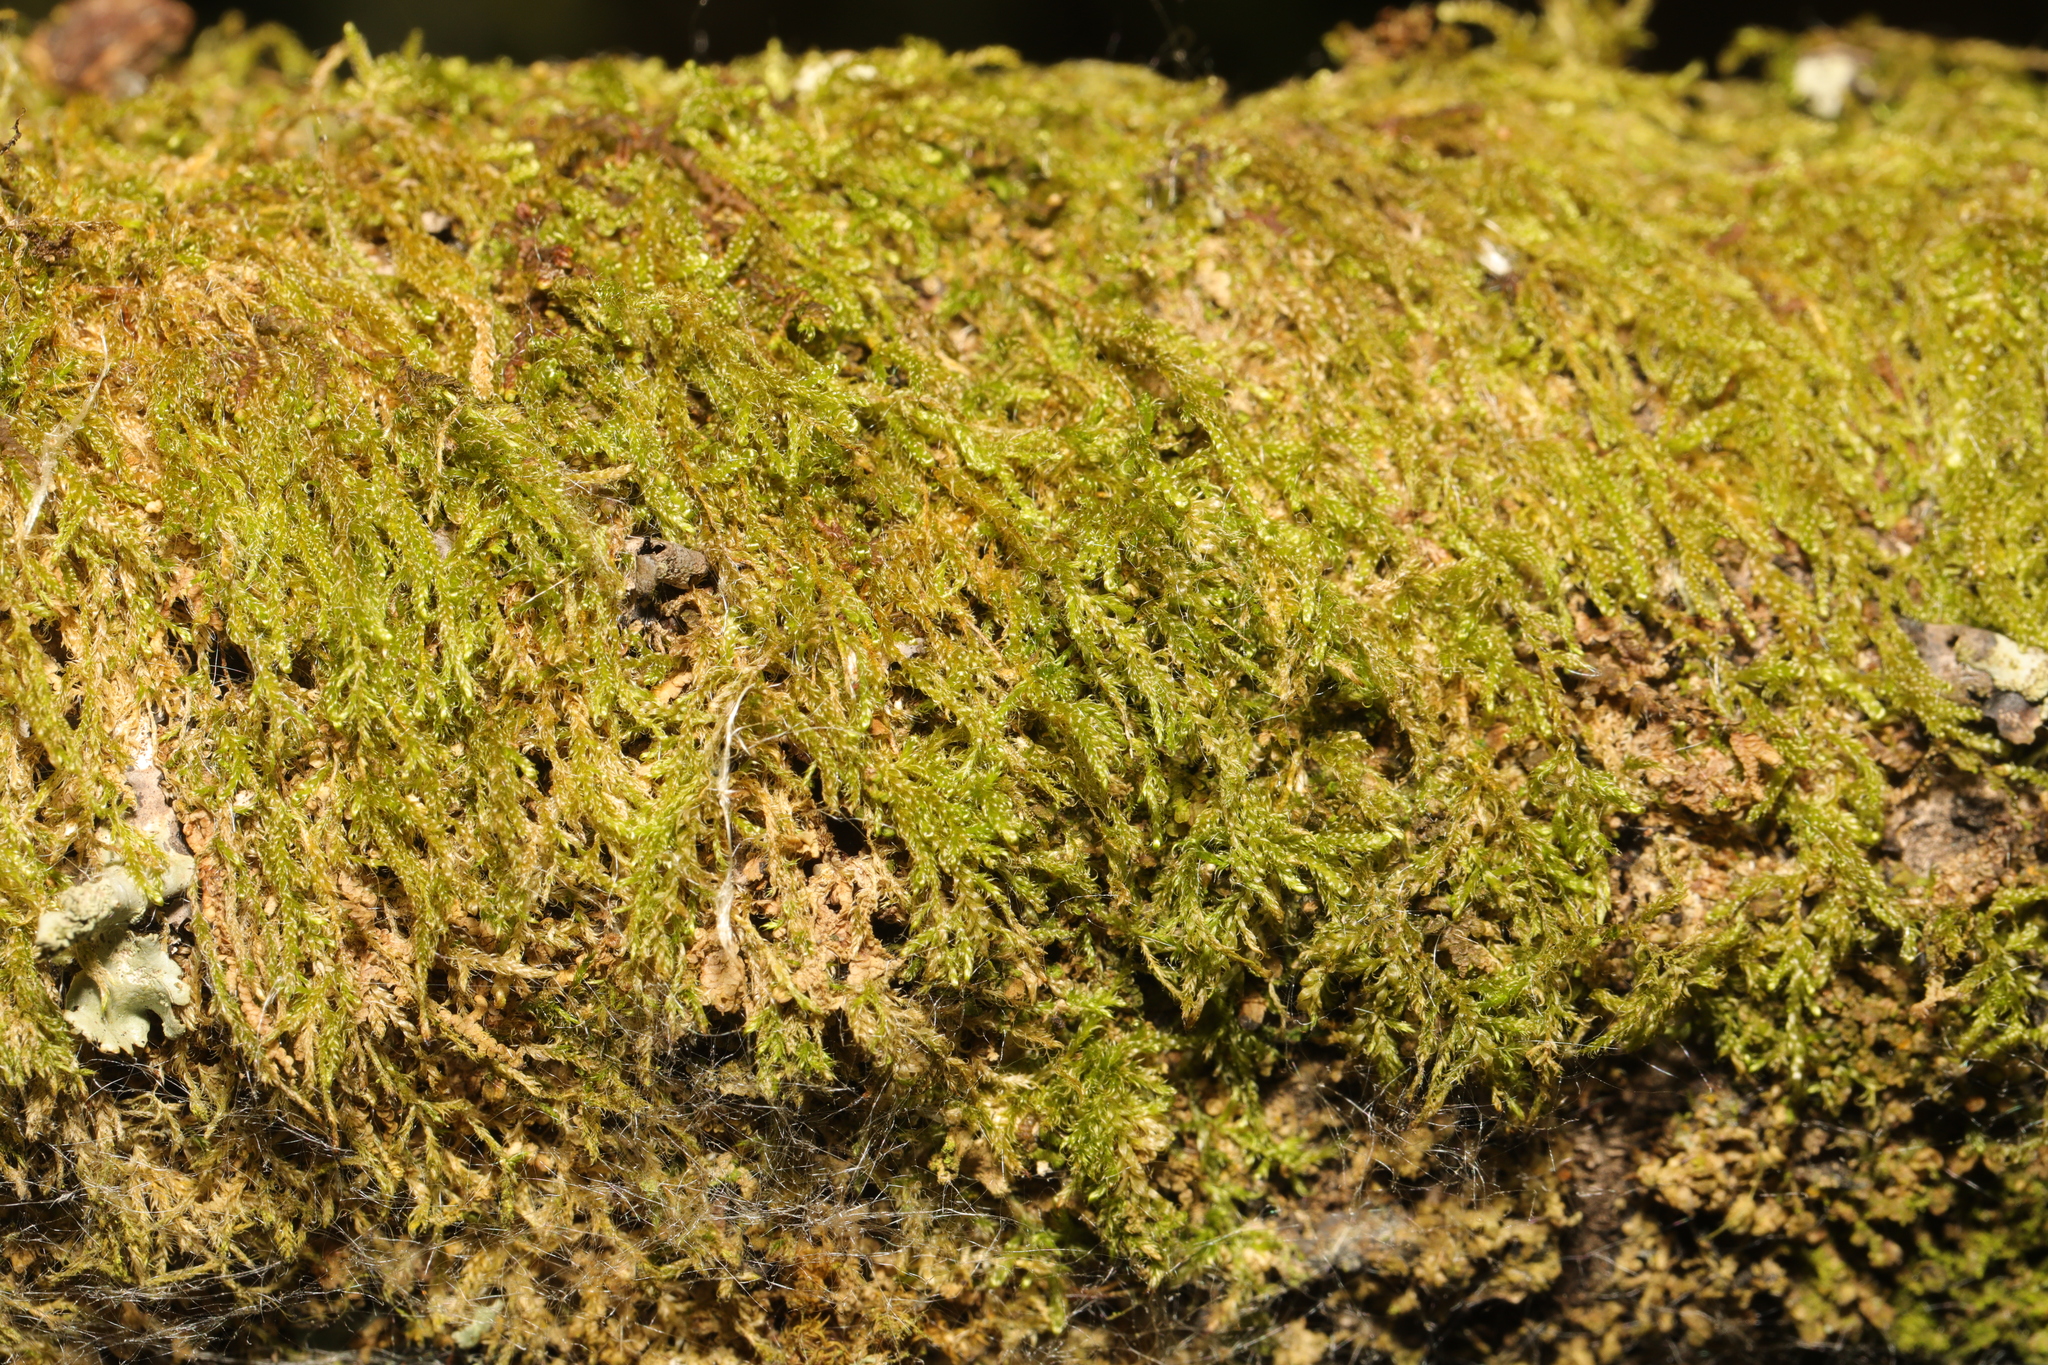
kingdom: Plantae
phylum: Bryophyta
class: Bryopsida
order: Hypnales
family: Hypnaceae
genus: Hypnum
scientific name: Hypnum cupressiforme
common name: Cypress-leaved plait-moss
